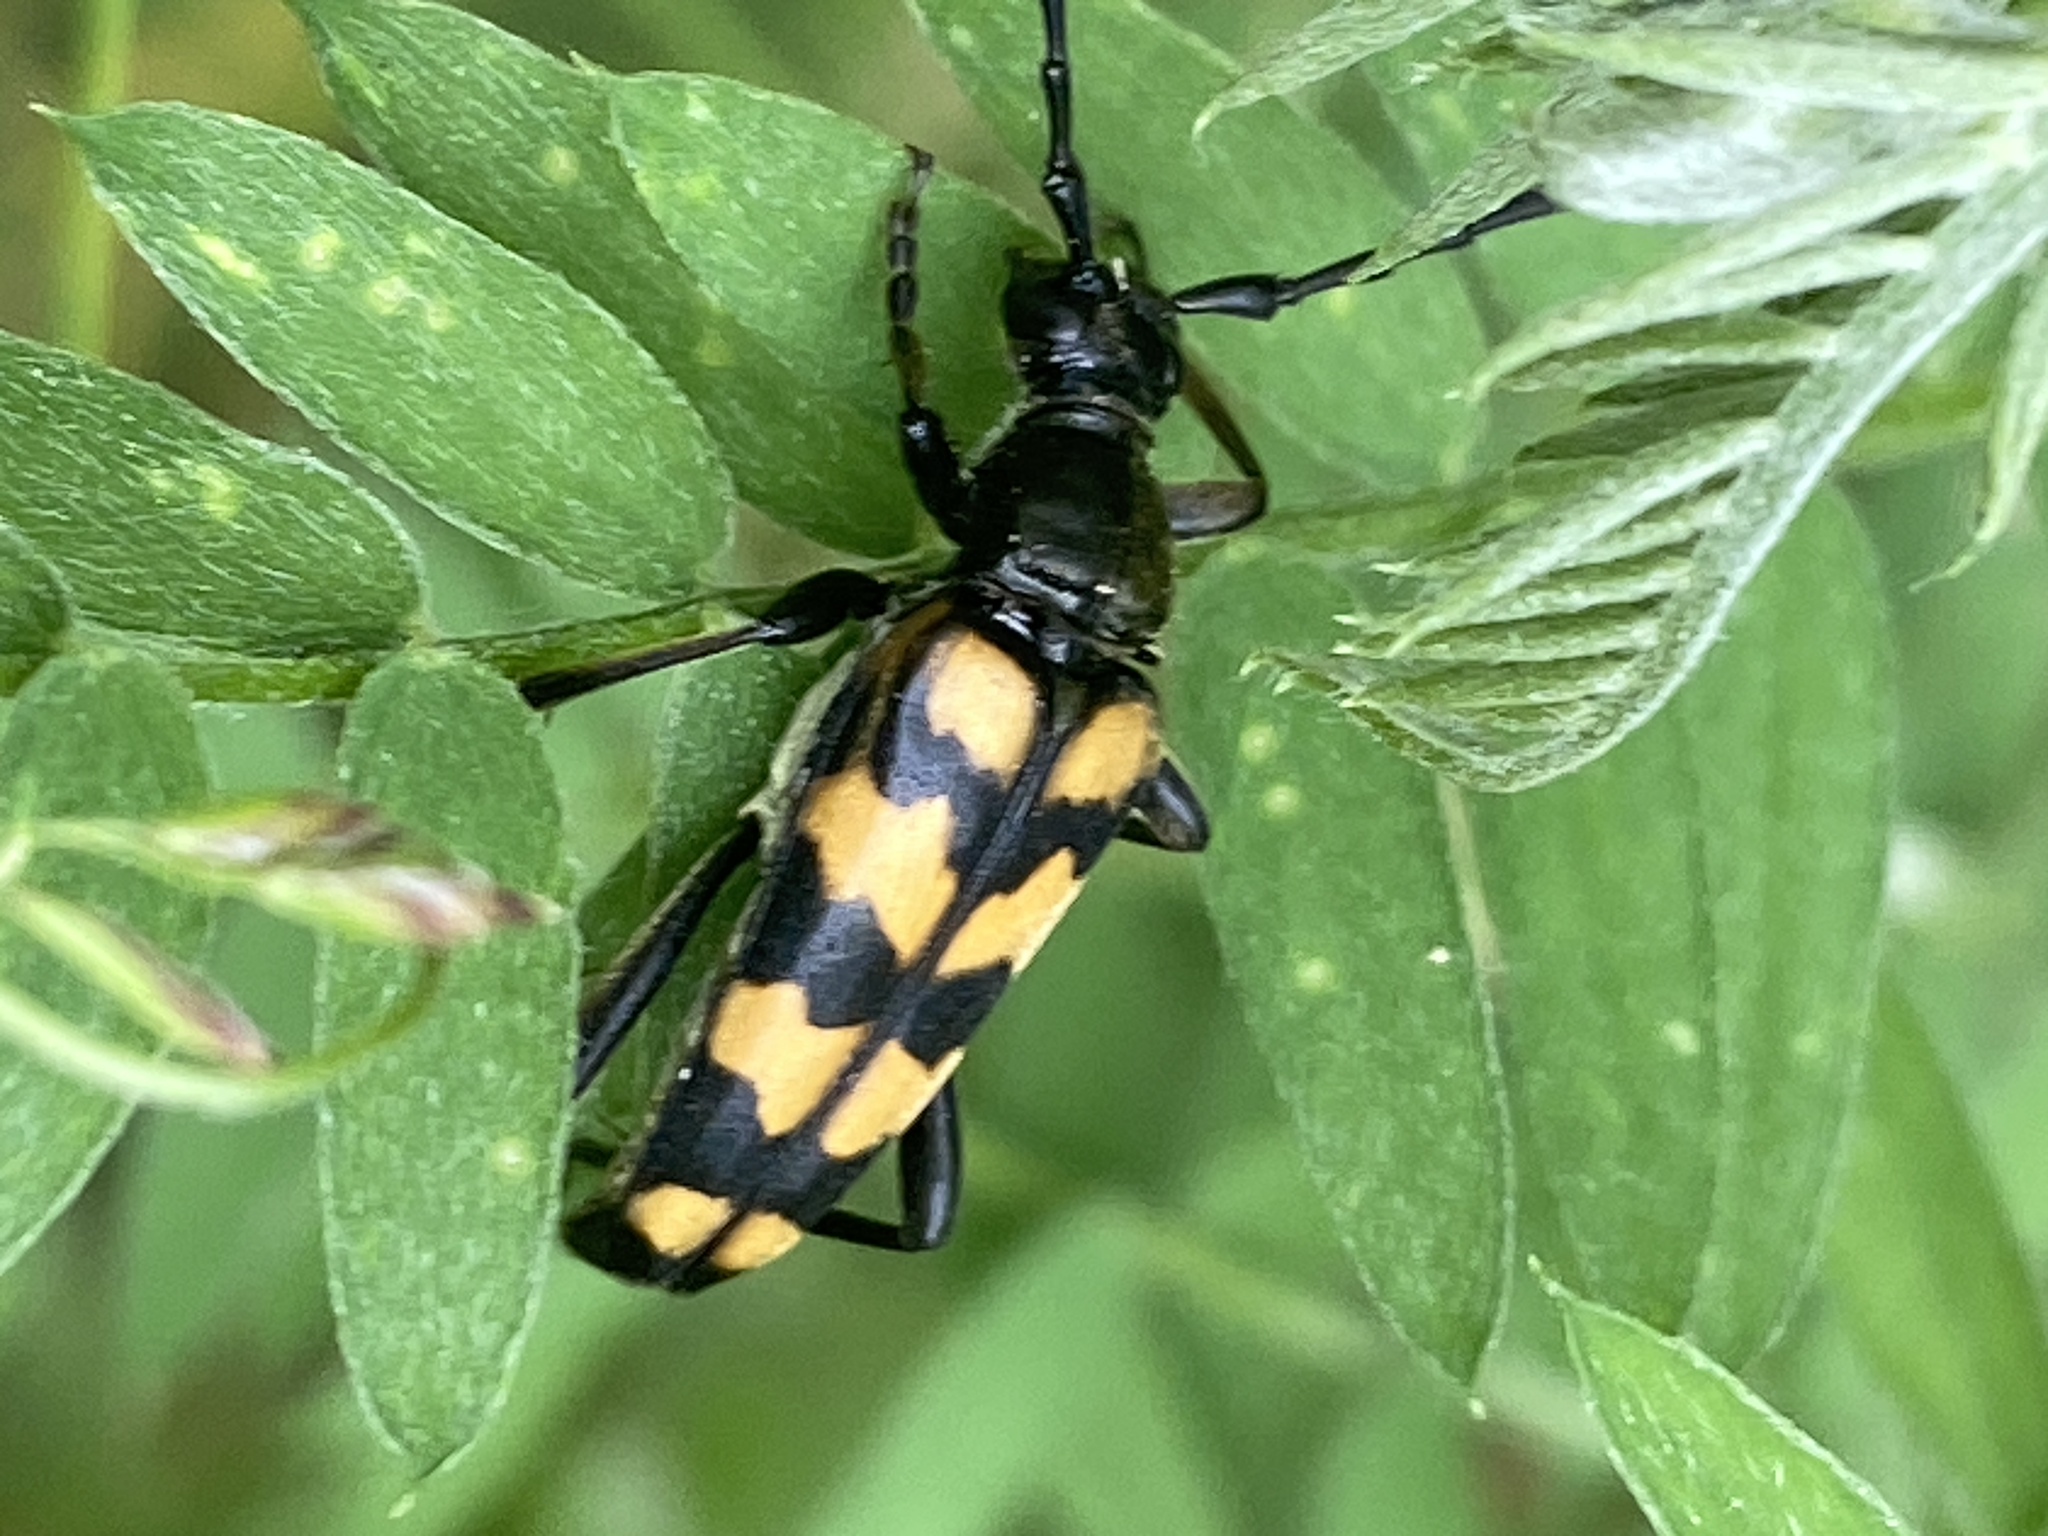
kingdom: Animalia
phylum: Arthropoda
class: Insecta
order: Coleoptera
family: Cerambycidae
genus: Leptura
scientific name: Leptura quadrifasciata
